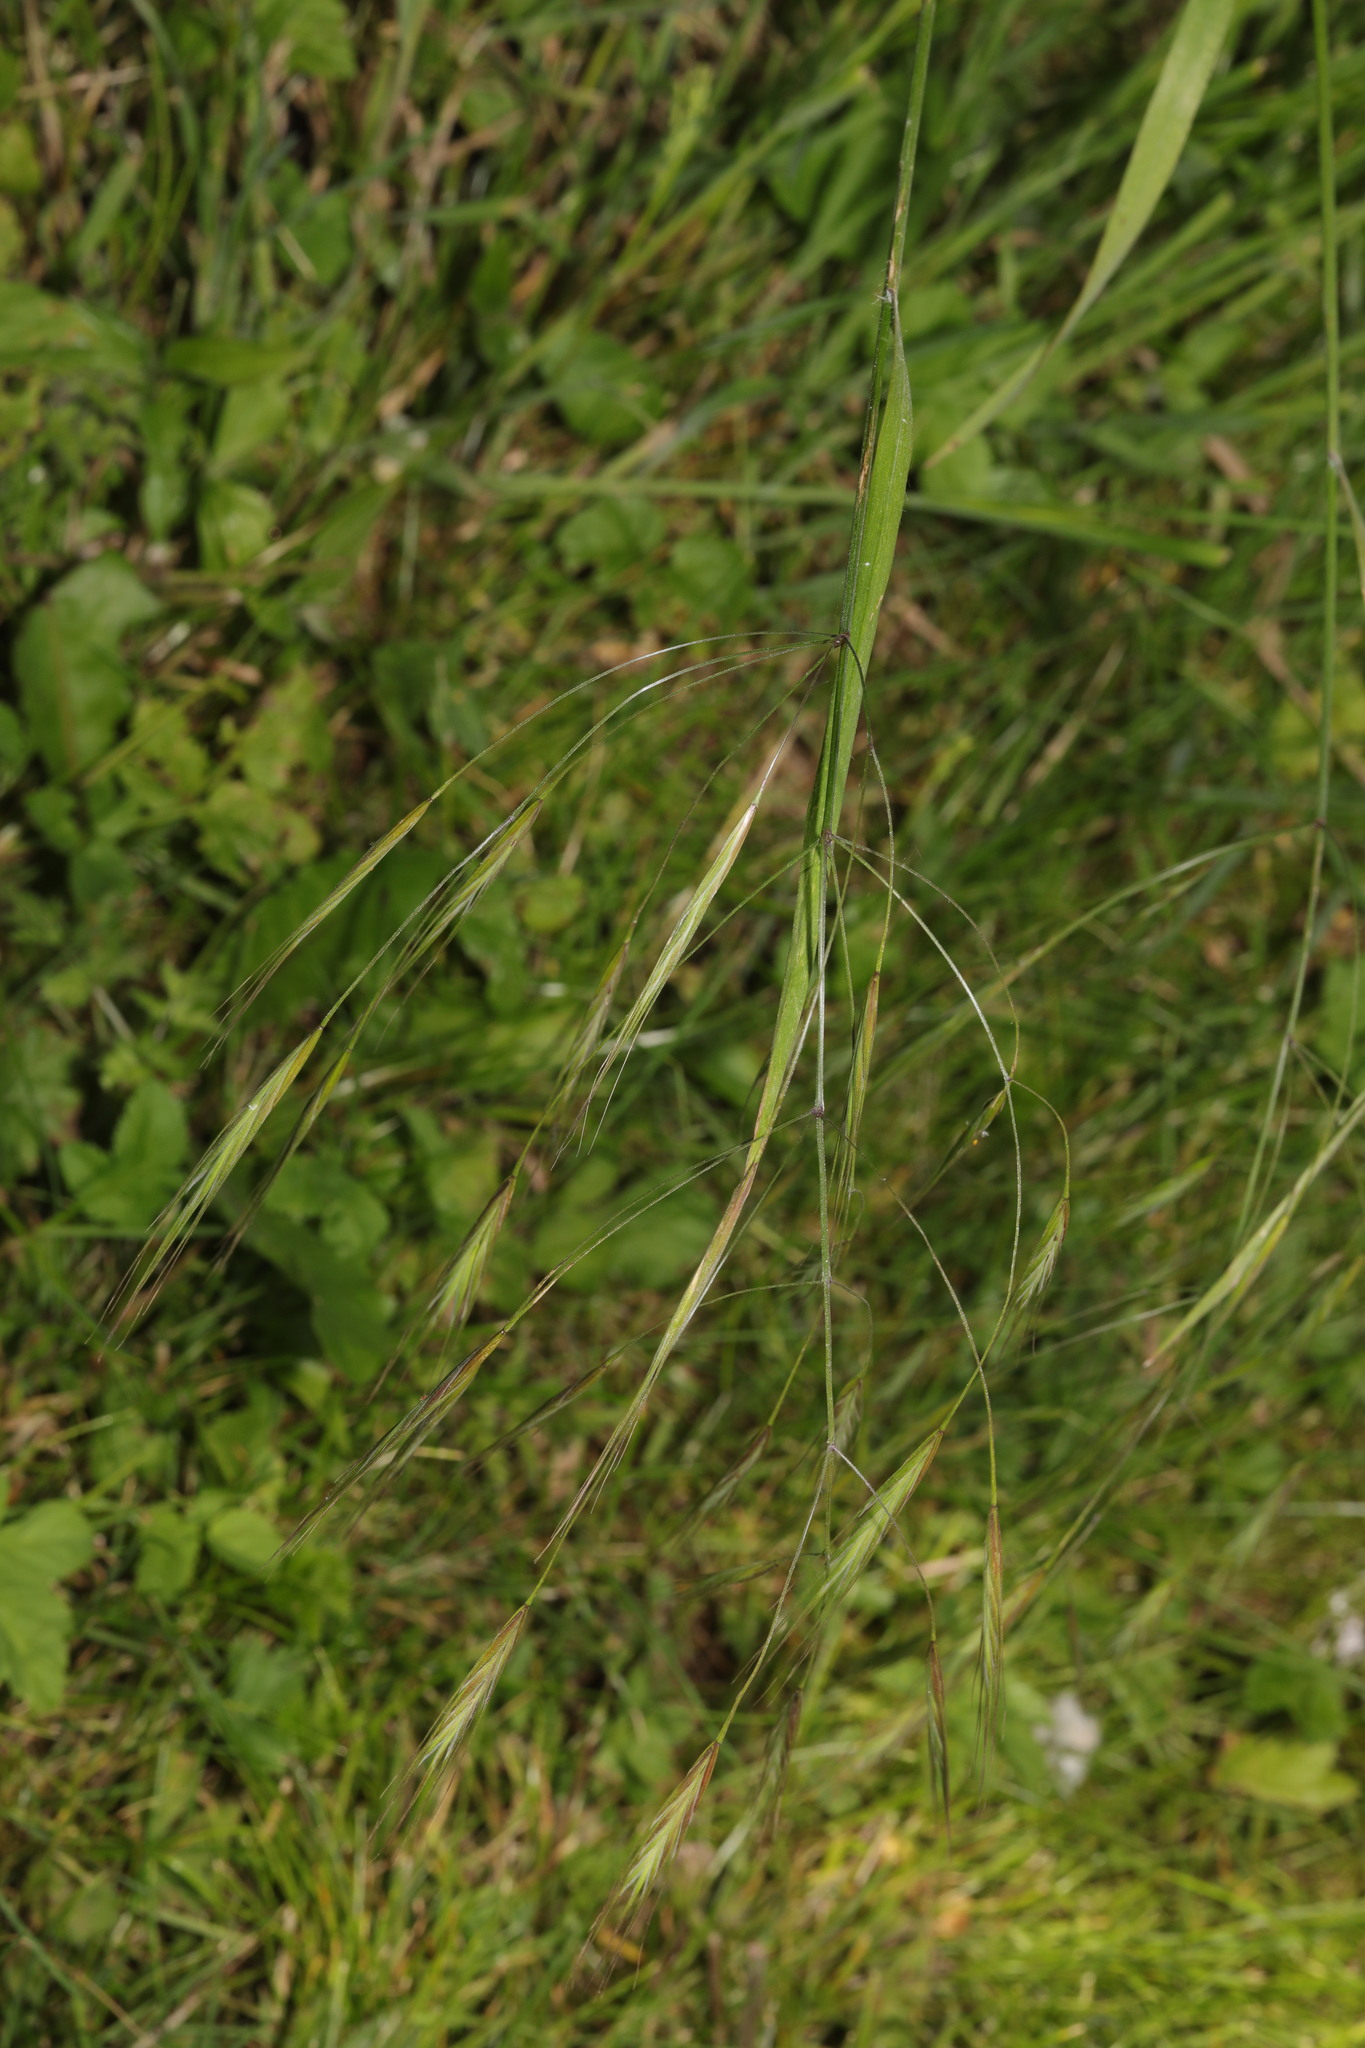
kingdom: Plantae
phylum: Tracheophyta
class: Liliopsida
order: Poales
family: Poaceae
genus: Bromus
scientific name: Bromus sterilis
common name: Poverty brome
